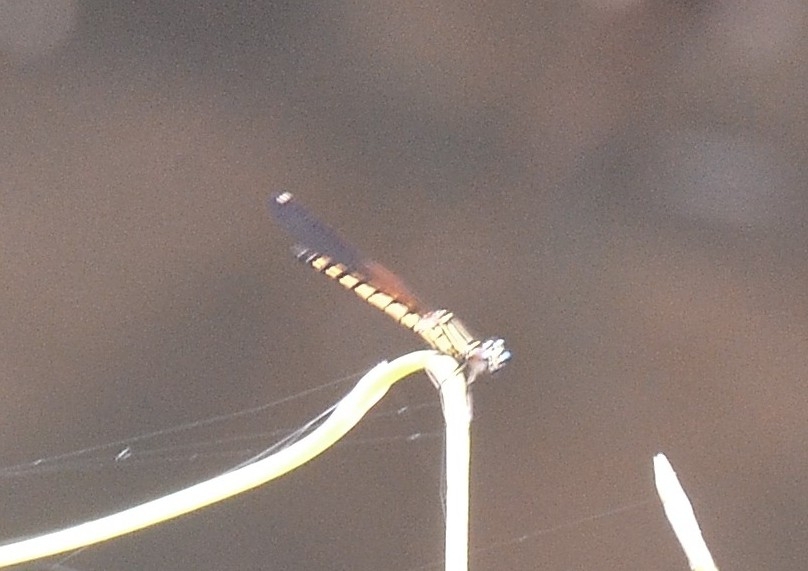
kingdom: Animalia
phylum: Arthropoda
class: Insecta
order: Odonata
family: Chlorocyphidae
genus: Libellago
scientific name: Libellago indica
